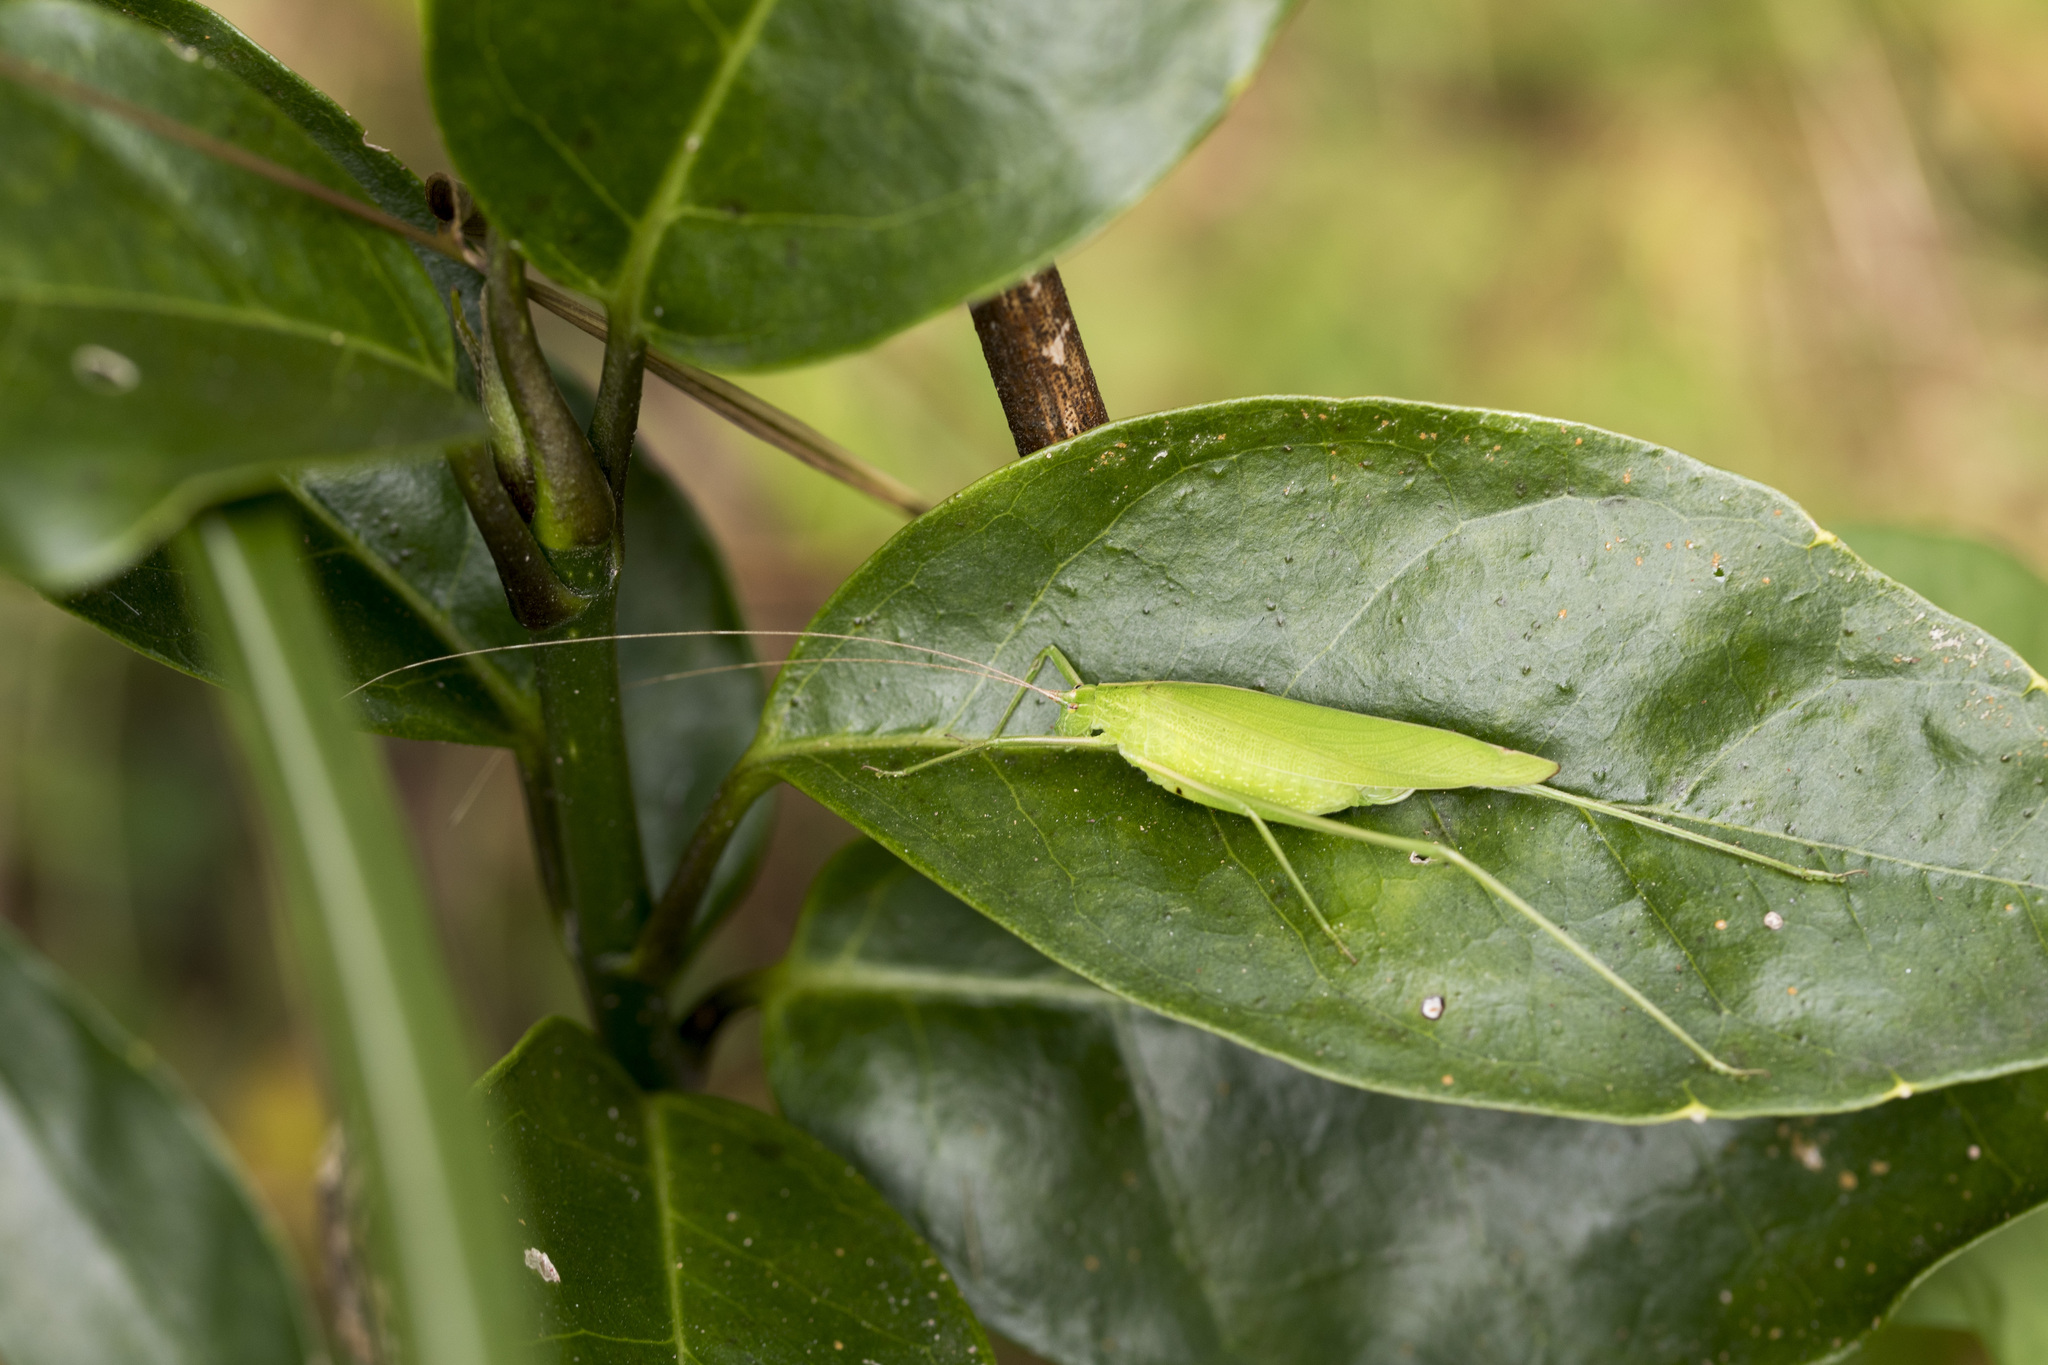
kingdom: Animalia
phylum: Arthropoda
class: Insecta
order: Orthoptera
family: Tettigoniidae
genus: Ducetia
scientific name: Ducetia japonica
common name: Pacific ducetia
